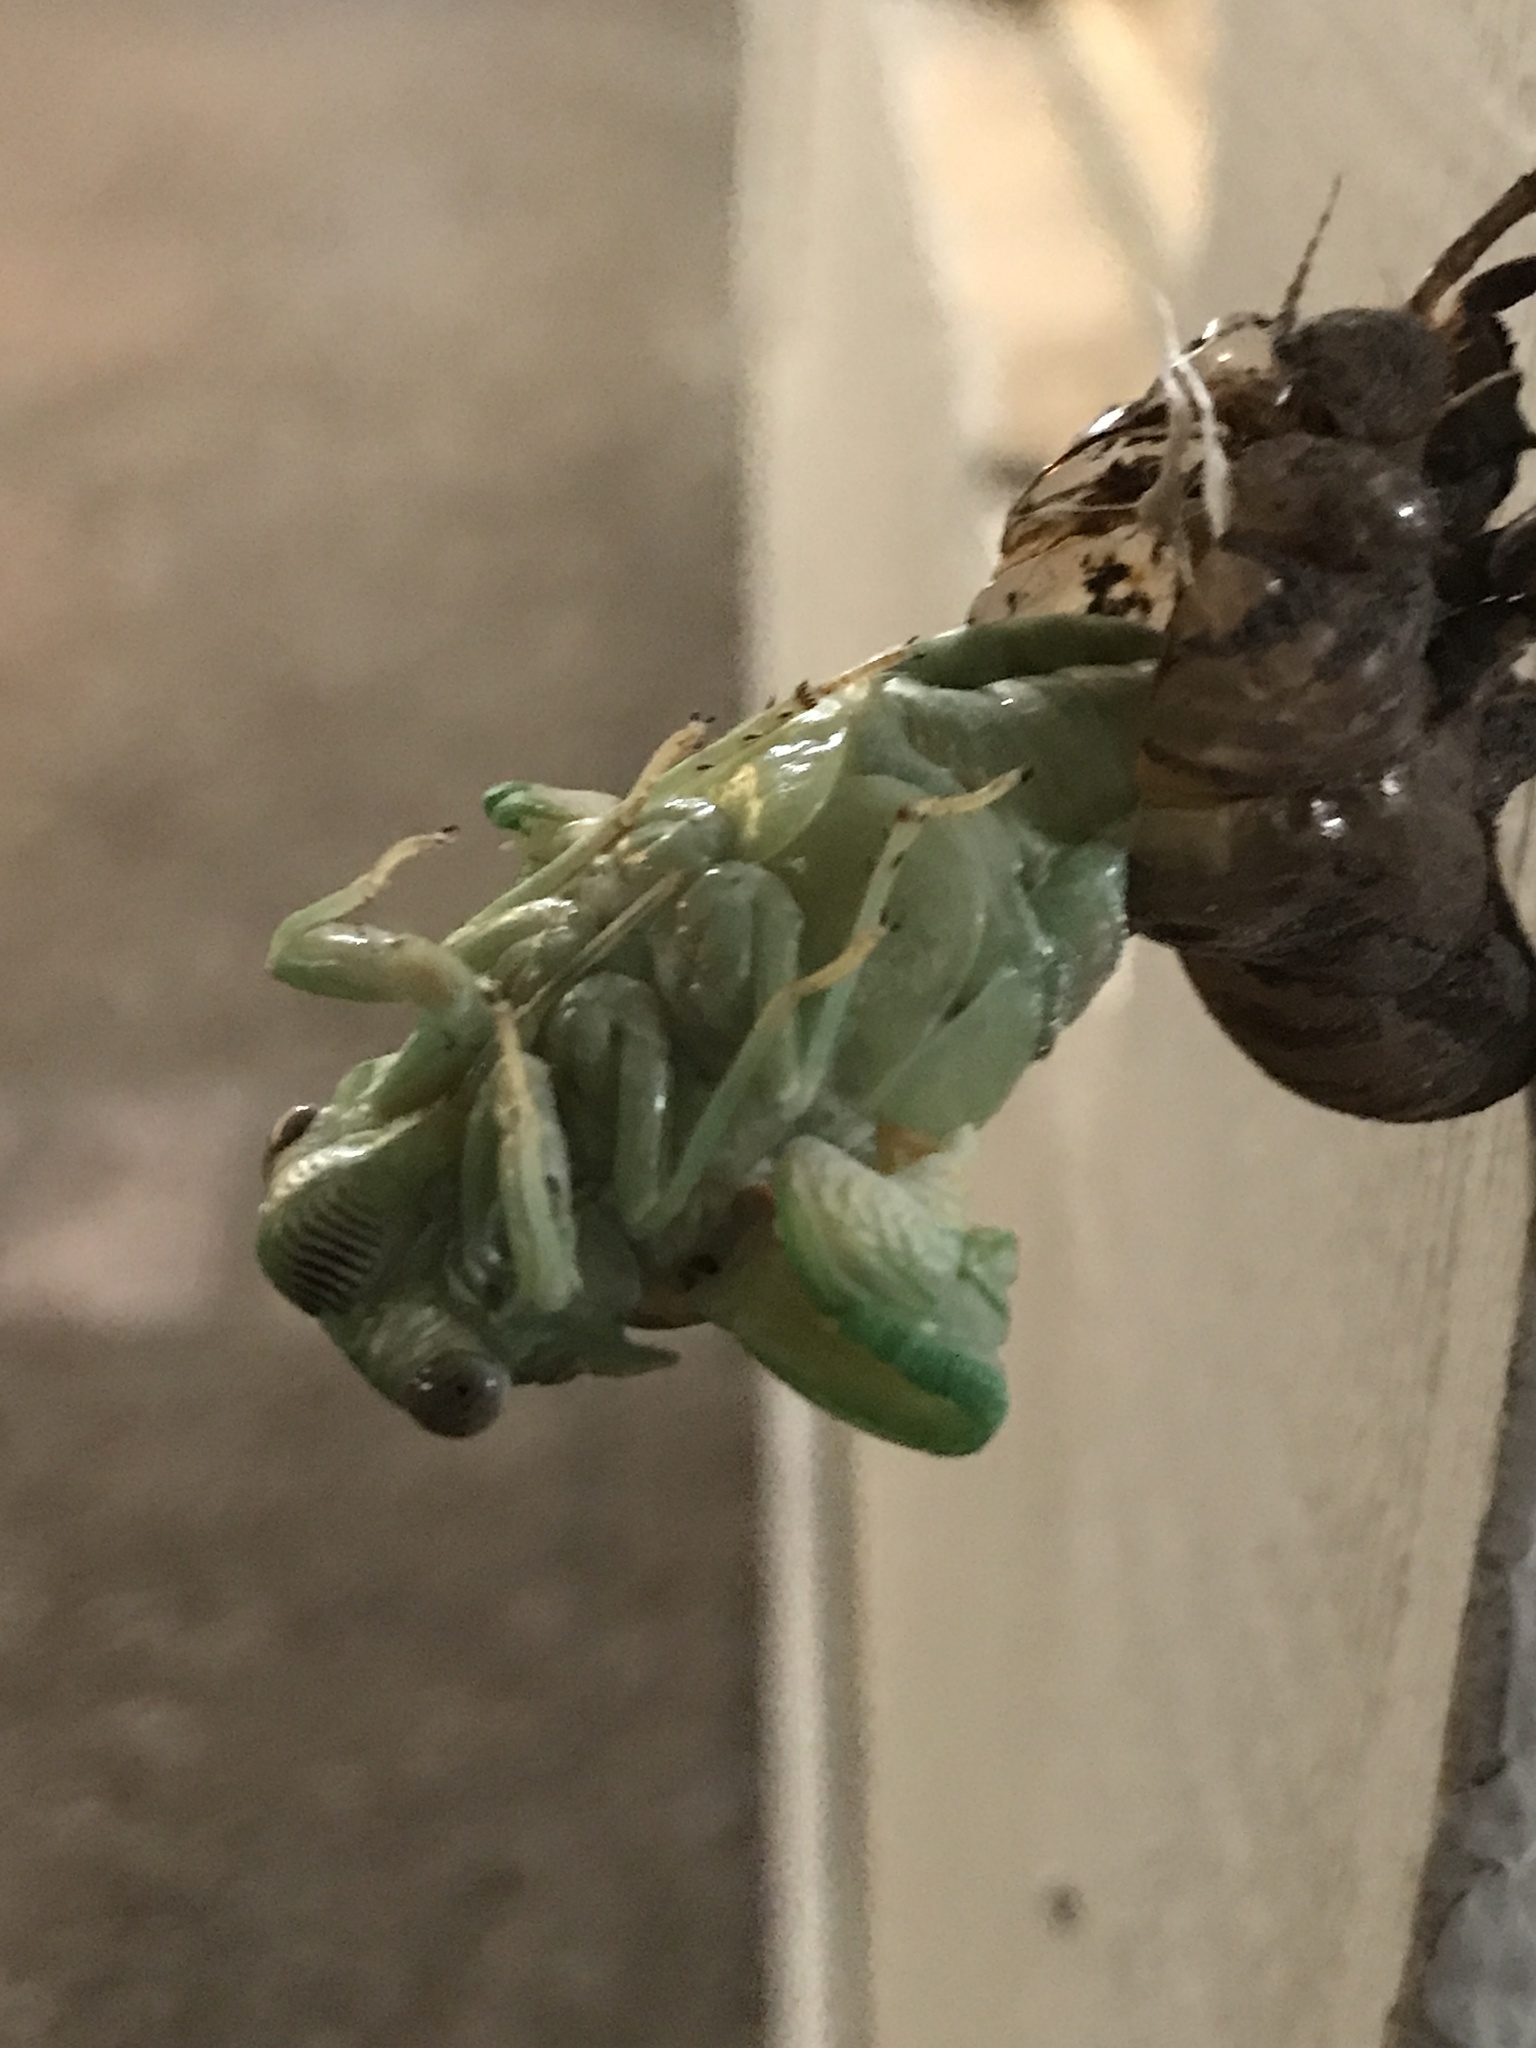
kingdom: Animalia
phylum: Arthropoda
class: Insecta
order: Hemiptera
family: Cicadidae
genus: Megatibicen
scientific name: Megatibicen resh
